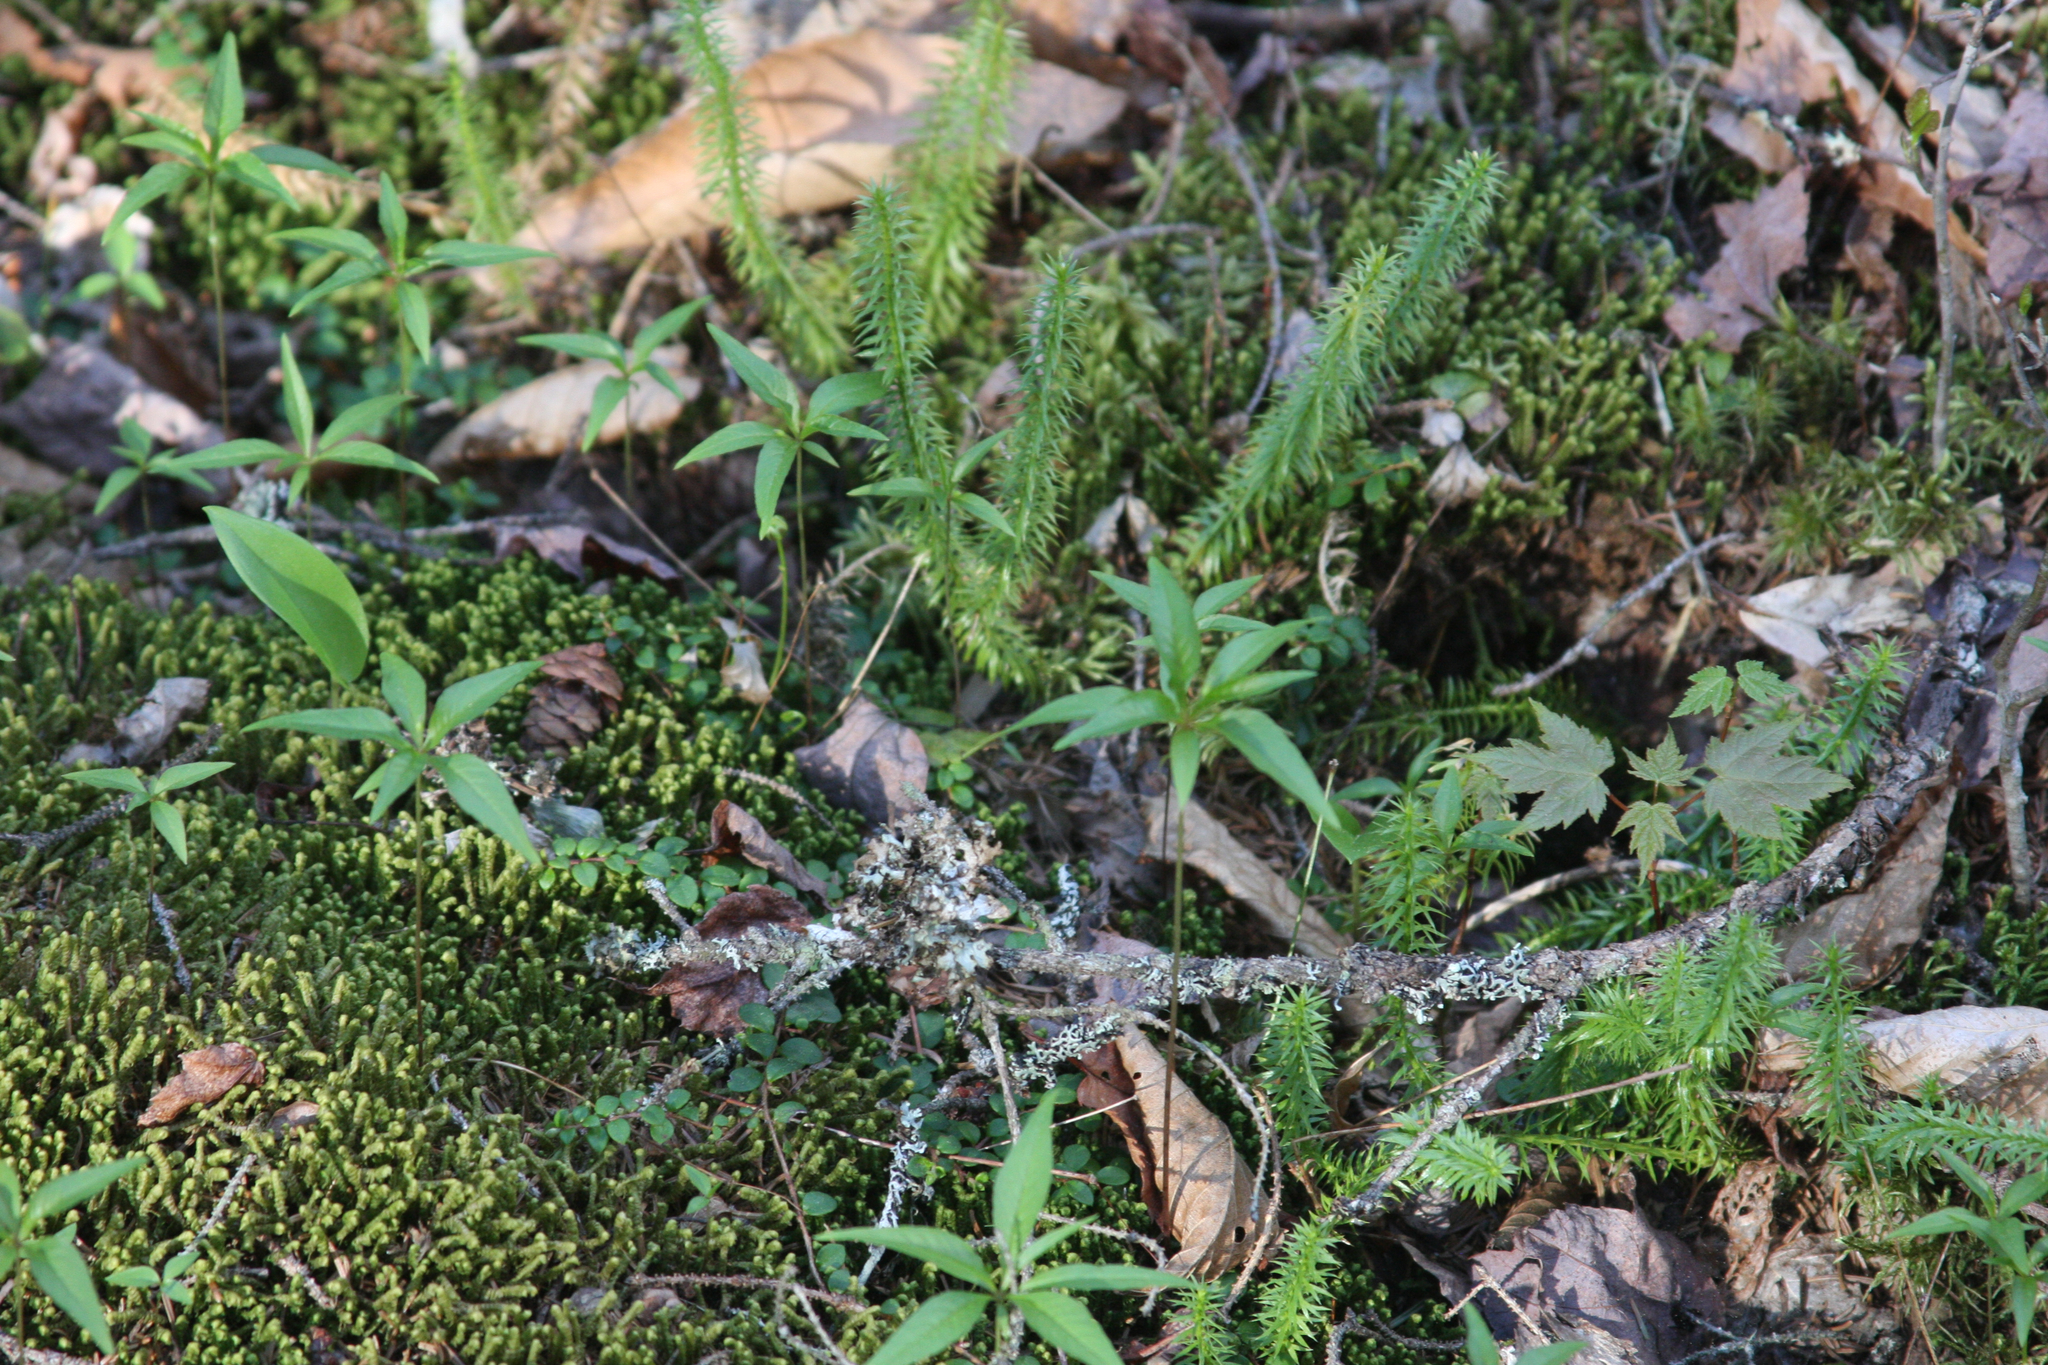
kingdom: Plantae
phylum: Tracheophyta
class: Magnoliopsida
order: Ericales
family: Primulaceae
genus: Lysimachia
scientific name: Lysimachia borealis
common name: American starflower
